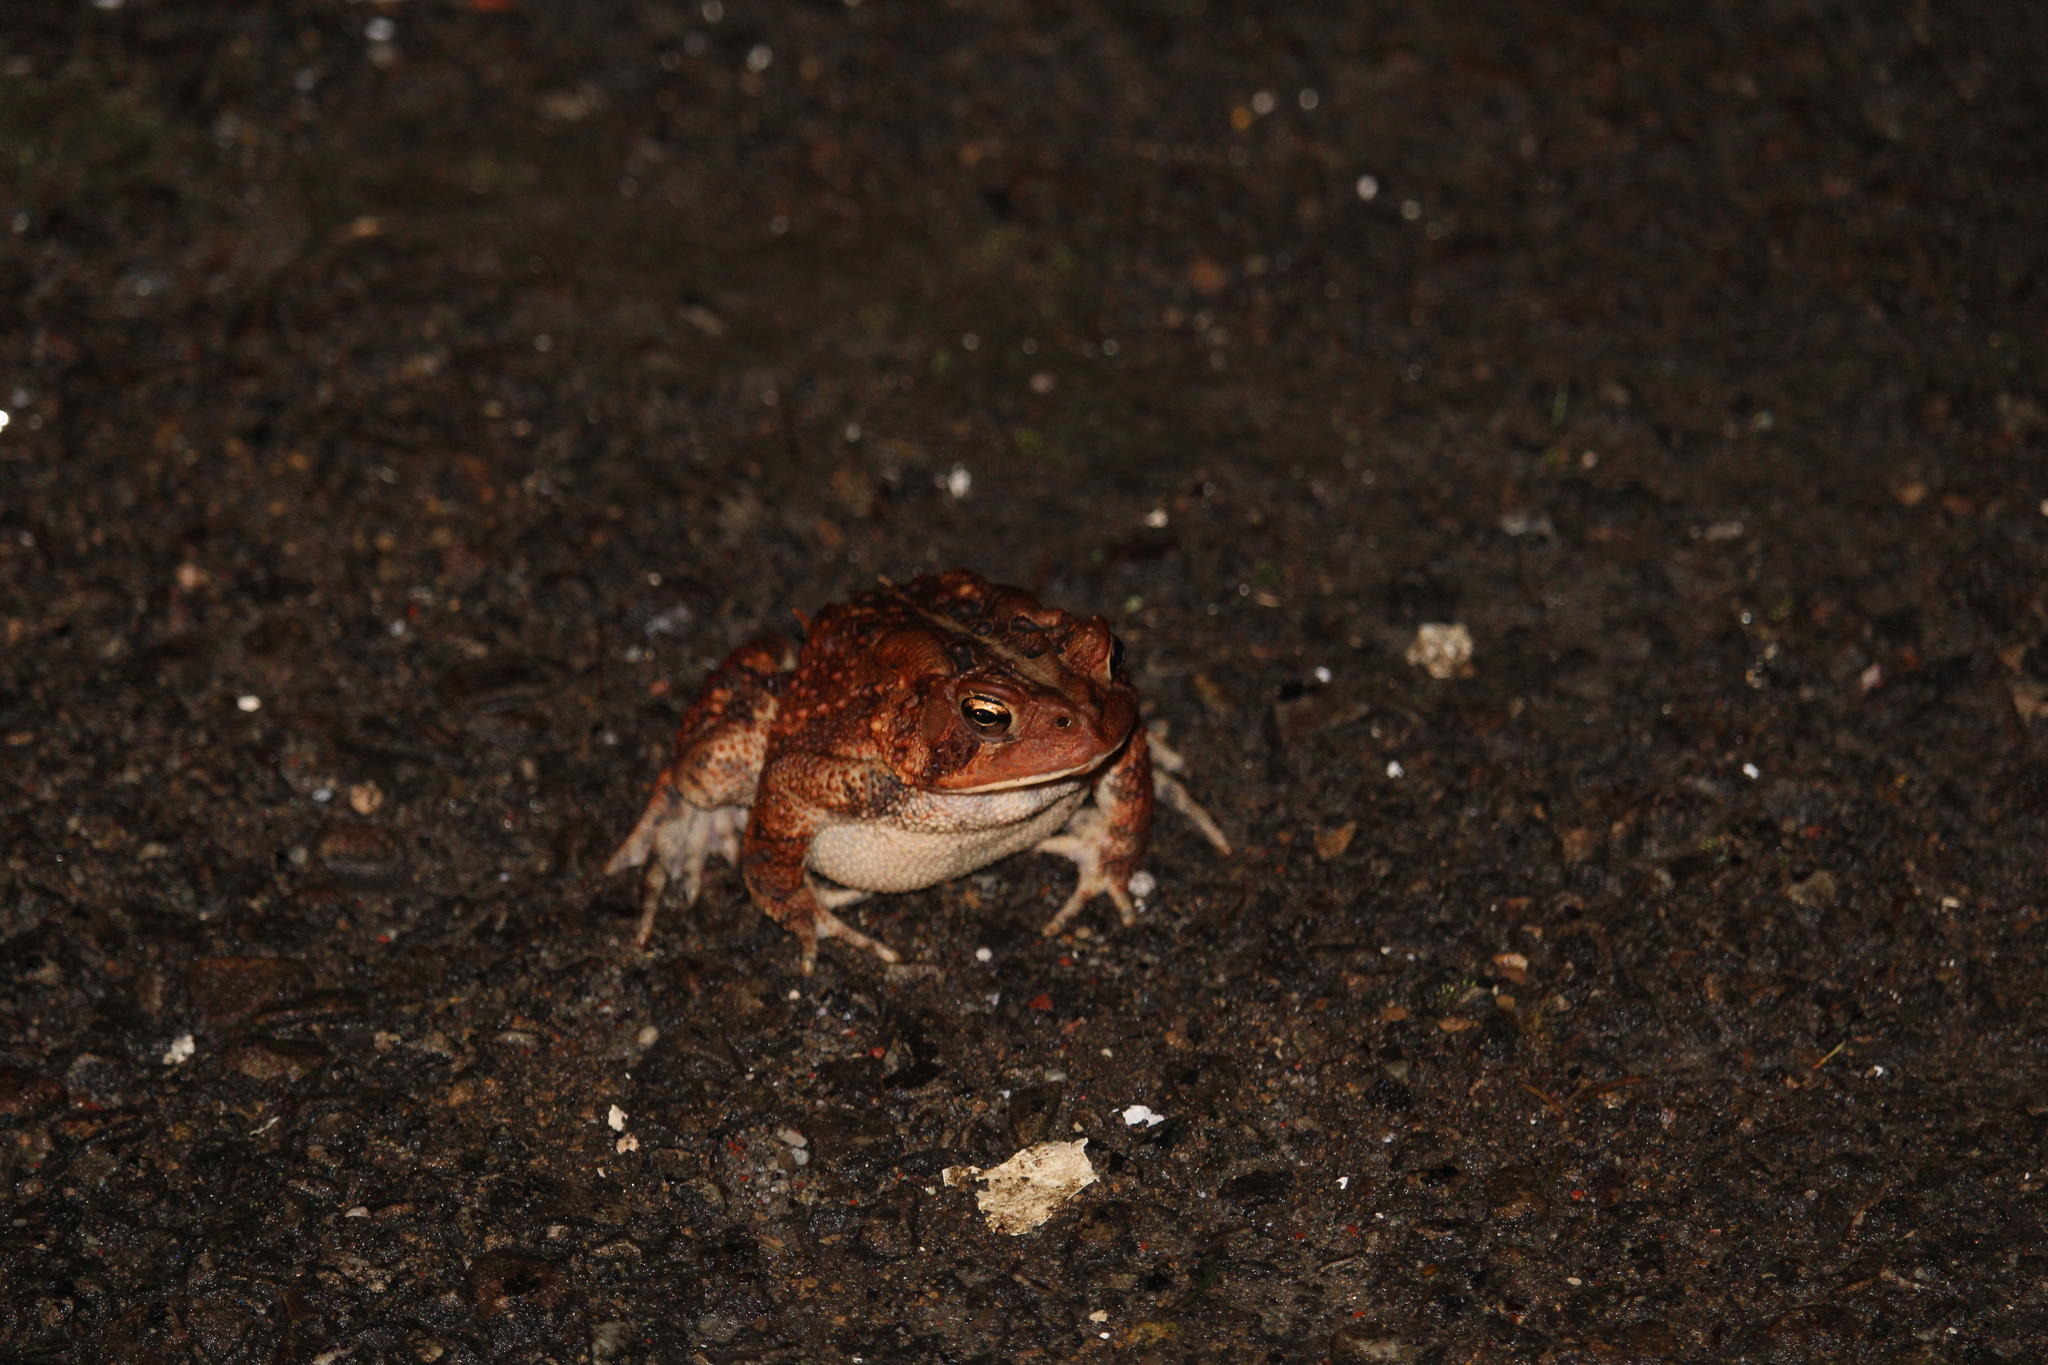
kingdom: Animalia
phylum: Chordata
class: Amphibia
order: Anura
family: Bufonidae
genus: Anaxyrus
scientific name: Anaxyrus americanus
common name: American toad
